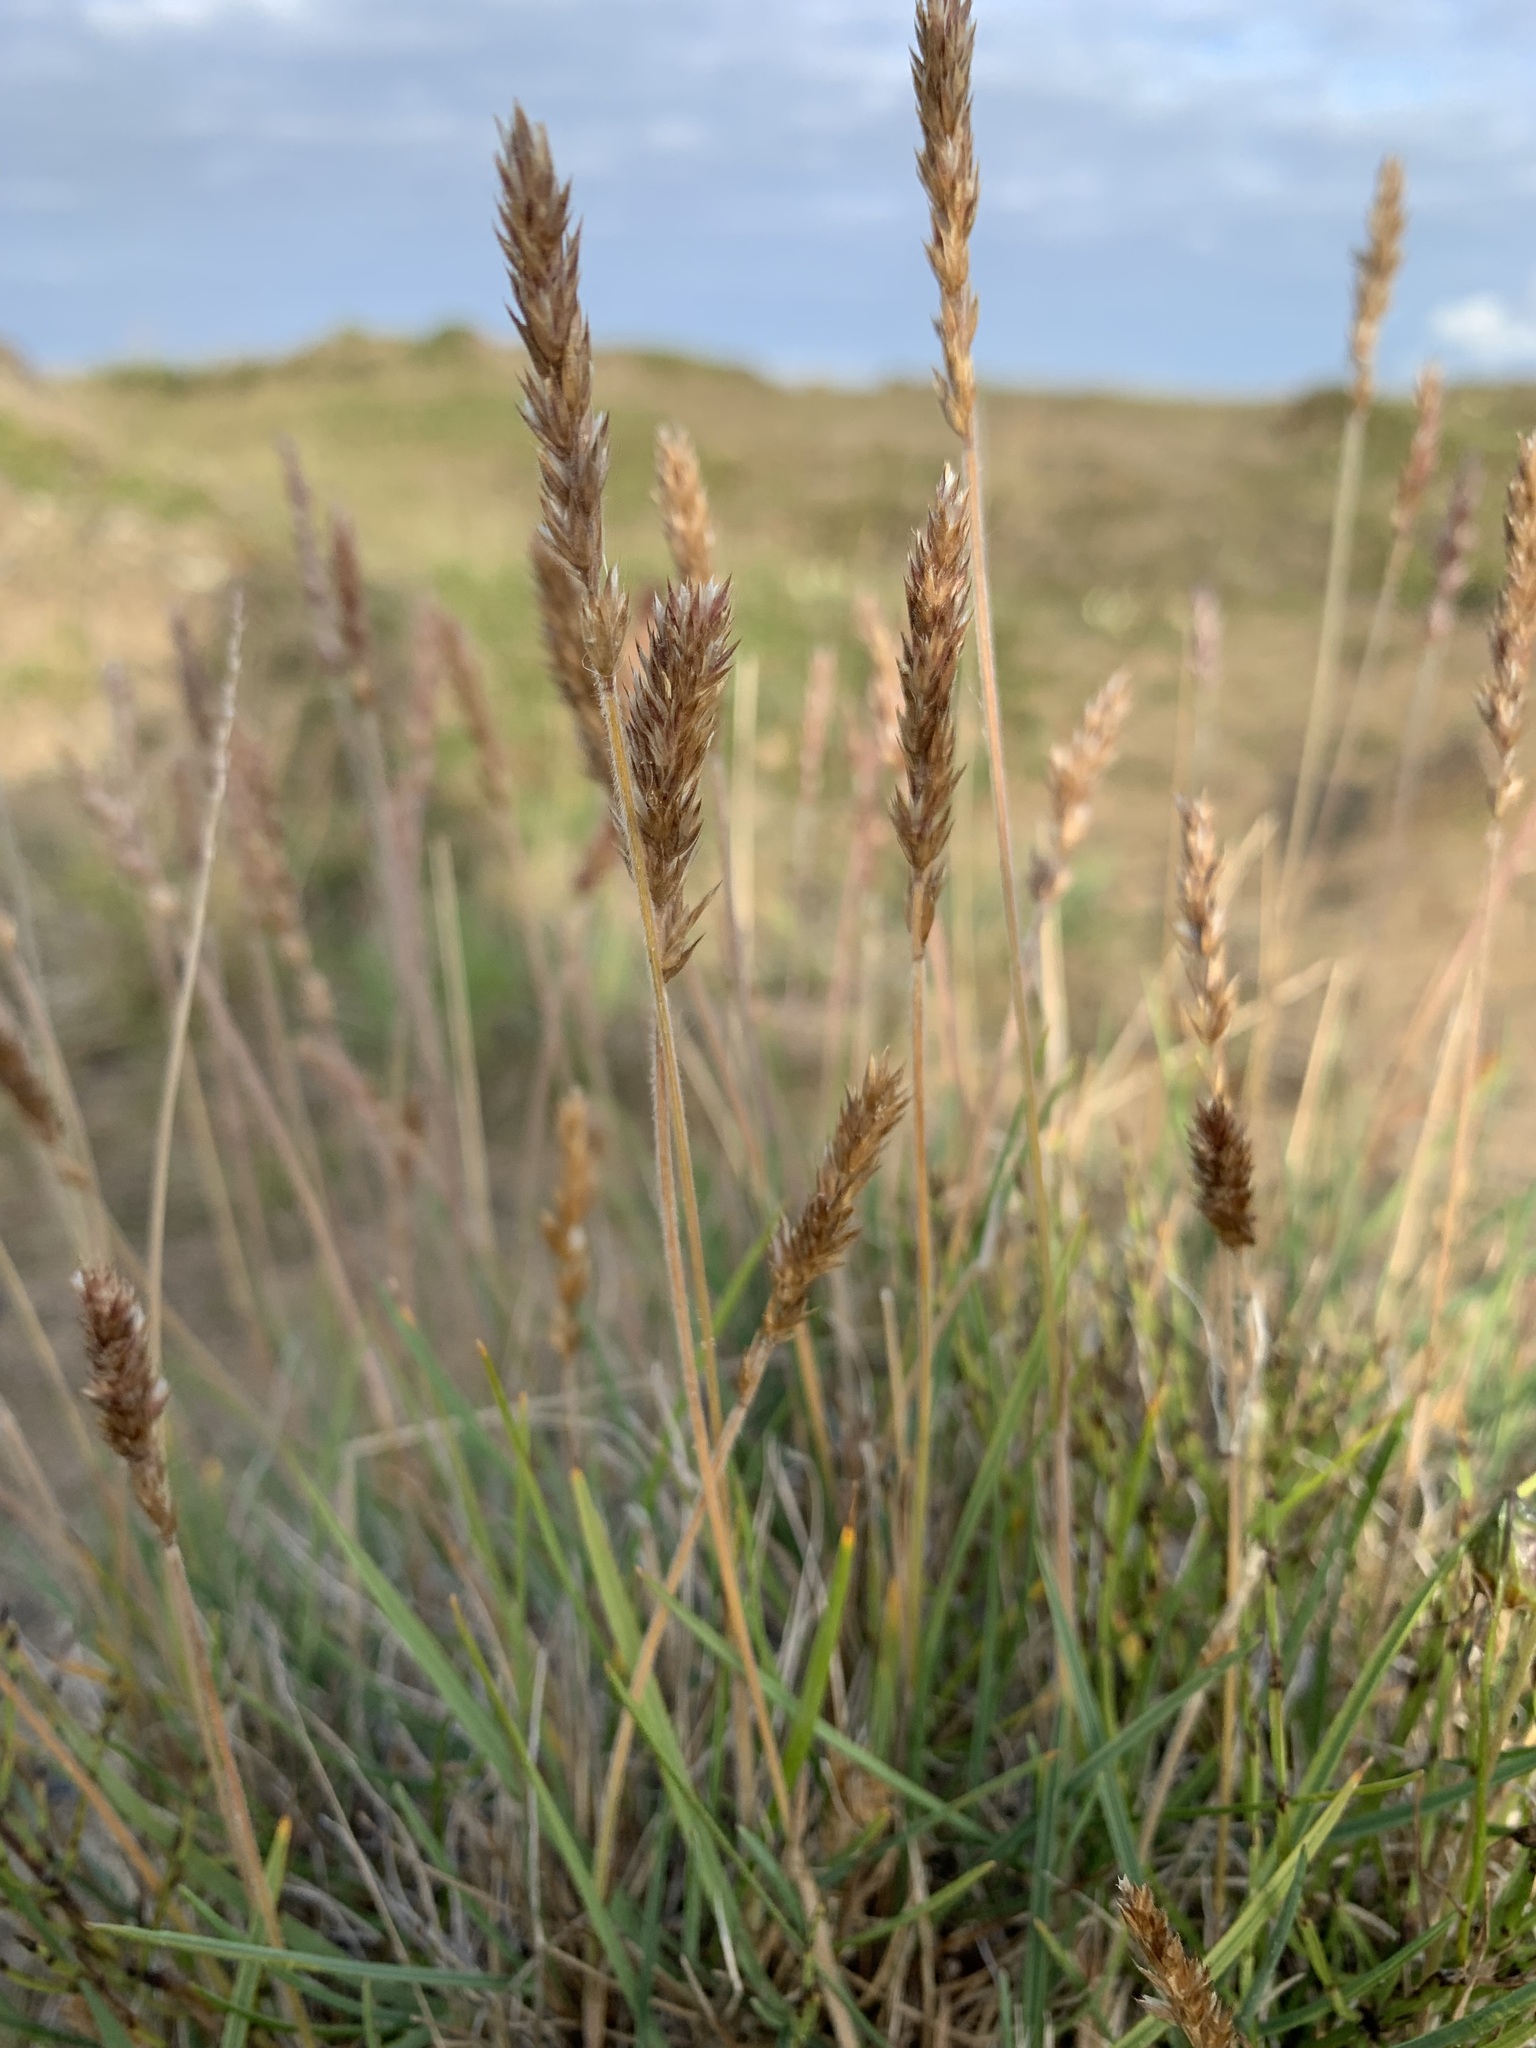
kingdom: Plantae
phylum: Tracheophyta
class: Liliopsida
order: Poales
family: Poaceae
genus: Koeleria
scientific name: Koeleria spicata
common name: Mountain trisetum
